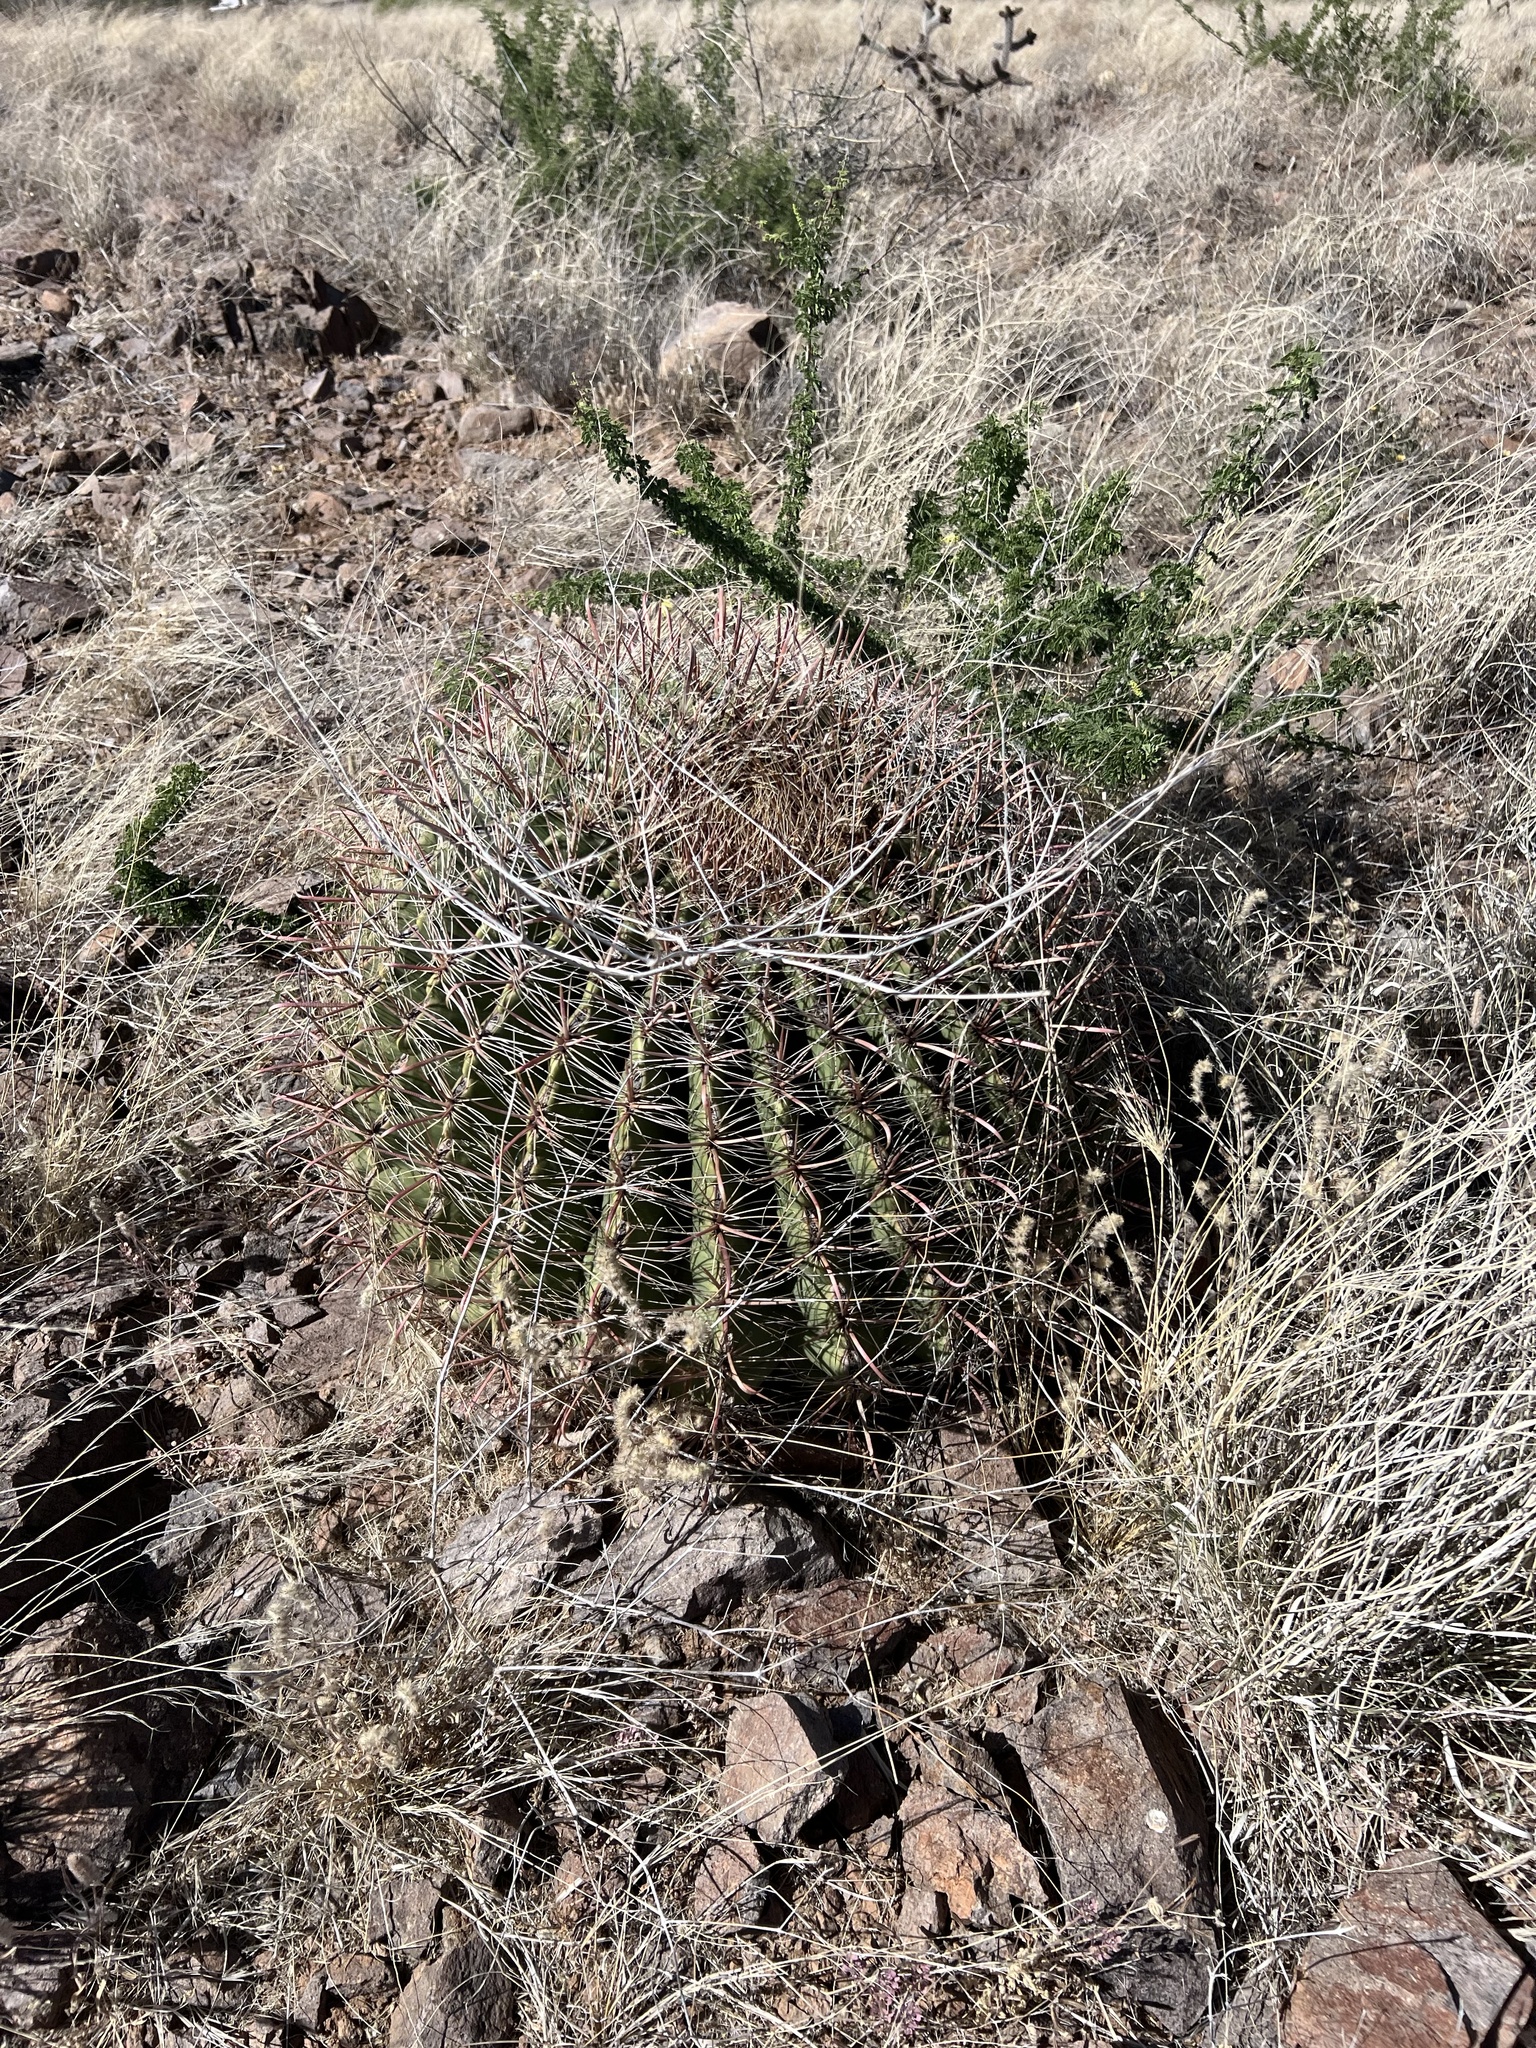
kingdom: Plantae
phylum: Tracheophyta
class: Magnoliopsida
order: Caryophyllales
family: Cactaceae
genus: Ferocactus
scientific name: Ferocactus wislizeni
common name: Candy barrel cactus
